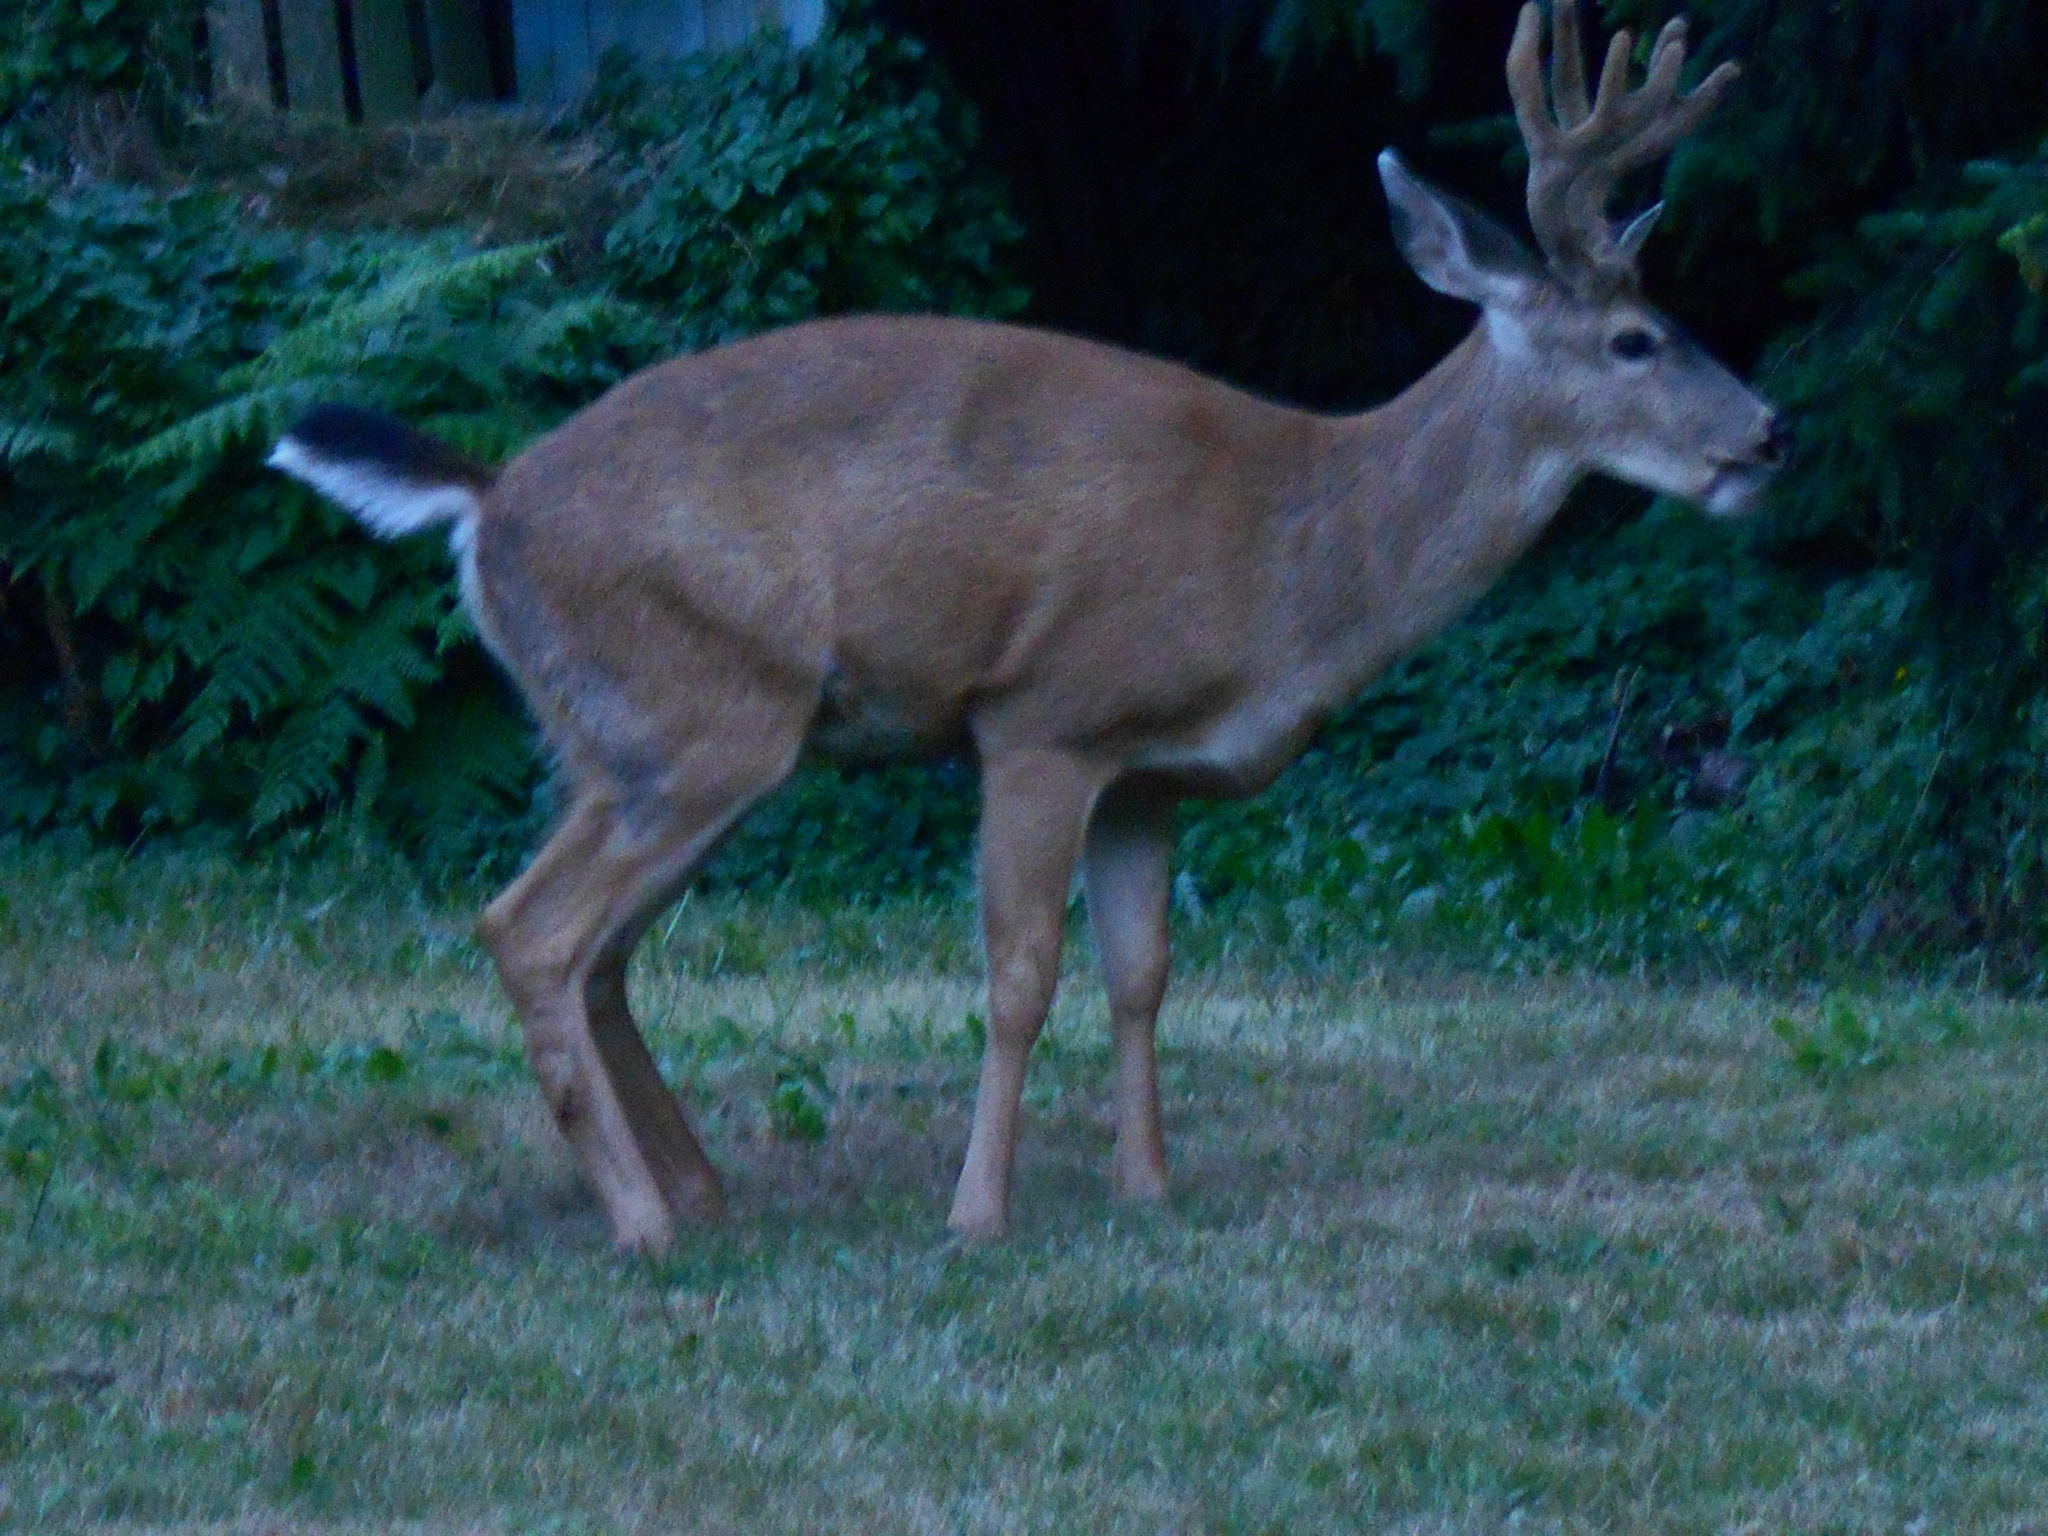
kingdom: Animalia
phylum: Chordata
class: Mammalia
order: Artiodactyla
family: Cervidae
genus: Odocoileus
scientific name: Odocoileus hemionus
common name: Mule deer
